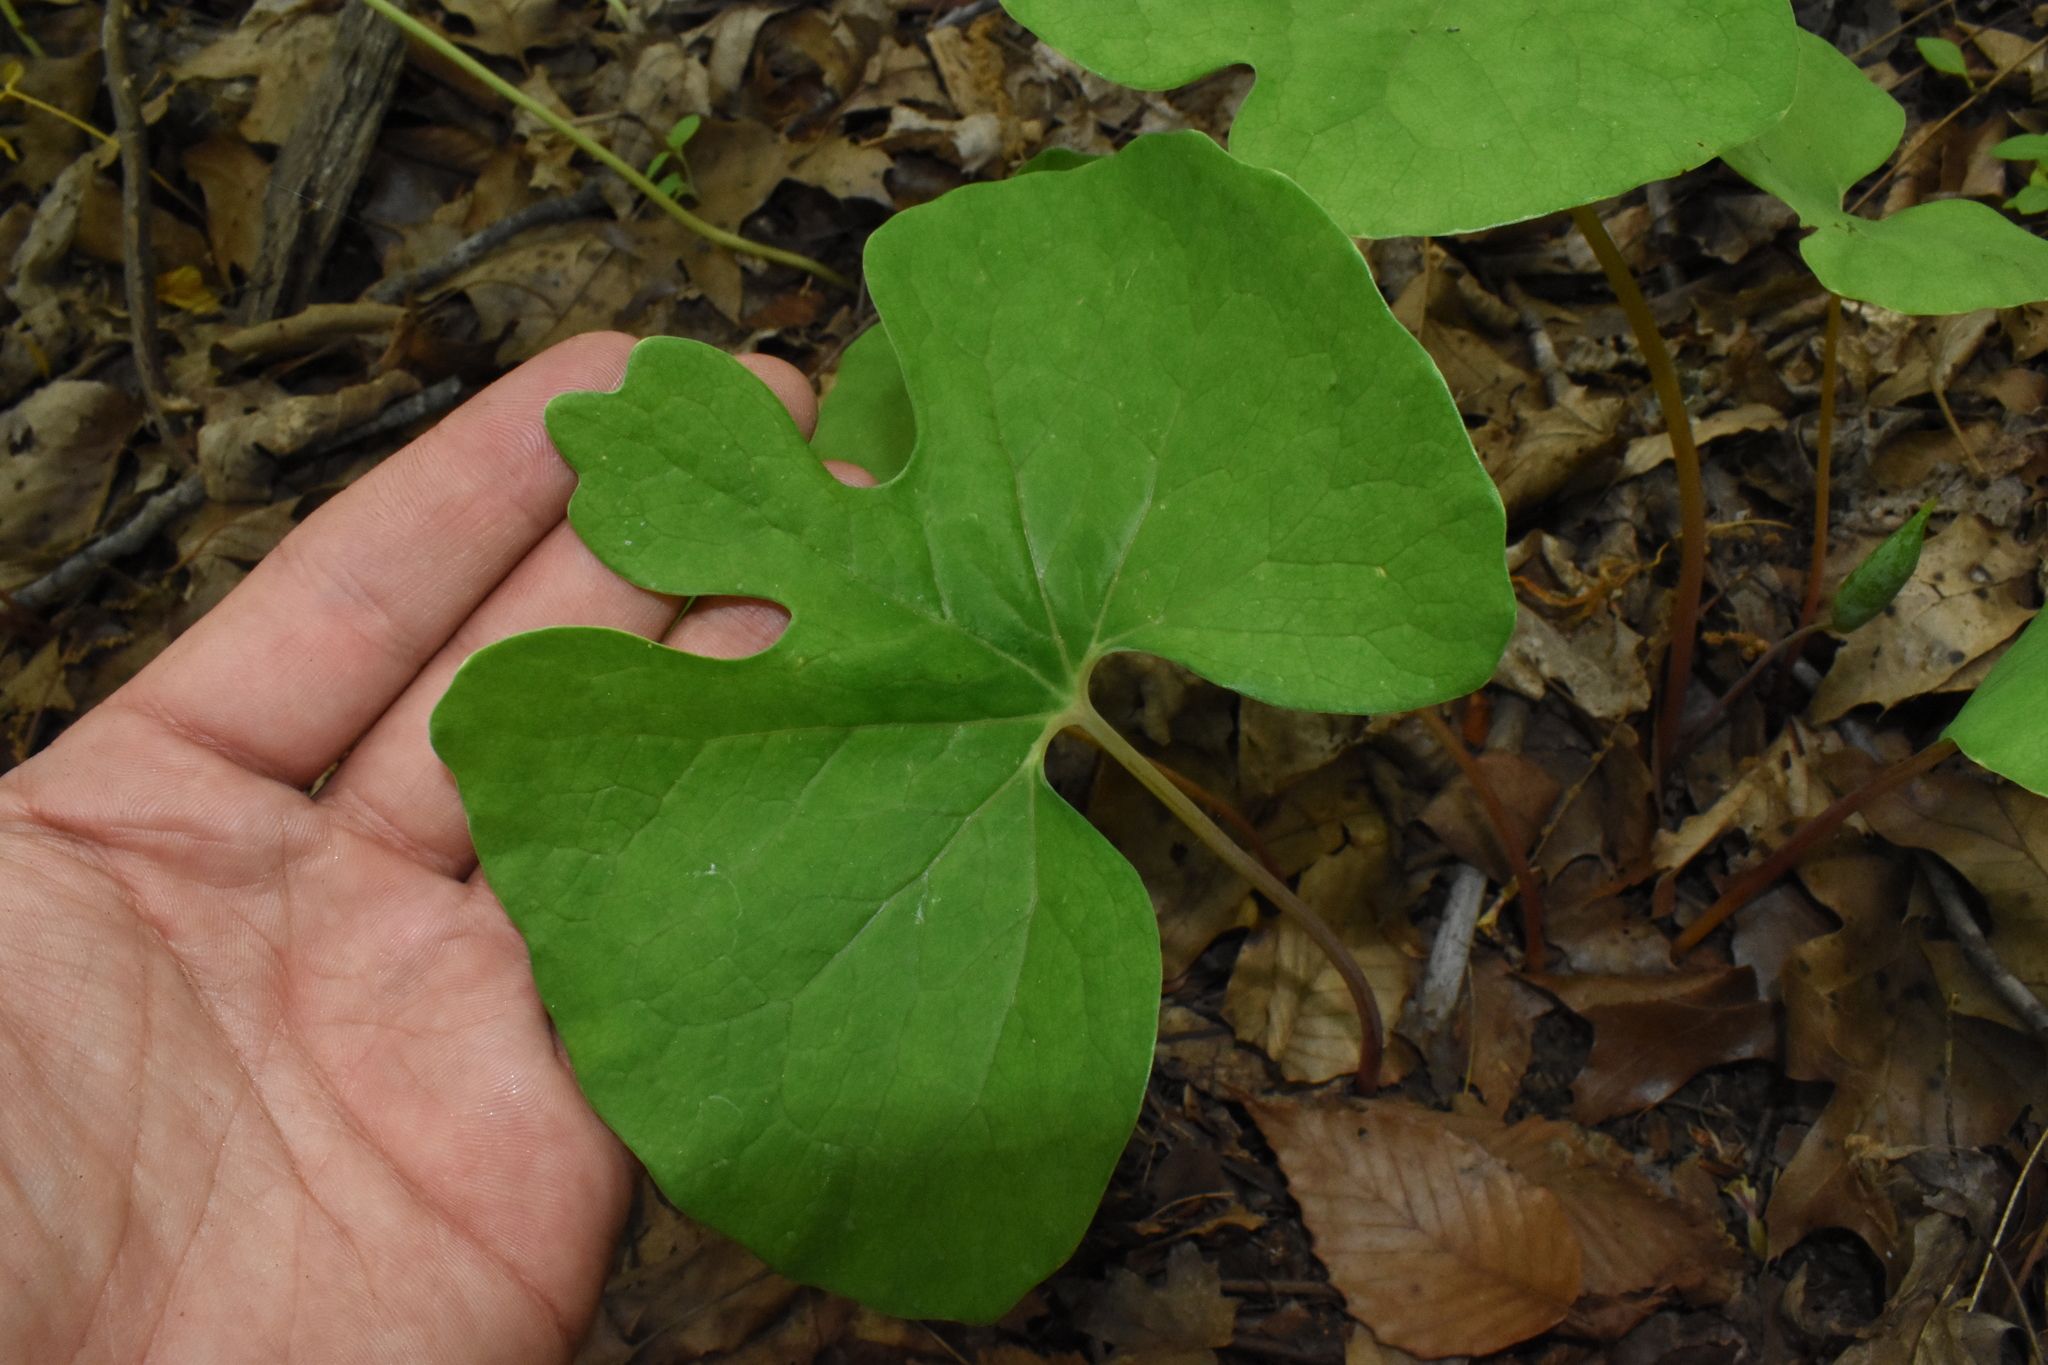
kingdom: Plantae
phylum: Tracheophyta
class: Magnoliopsida
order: Ranunculales
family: Papaveraceae
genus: Sanguinaria
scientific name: Sanguinaria canadensis
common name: Bloodroot
